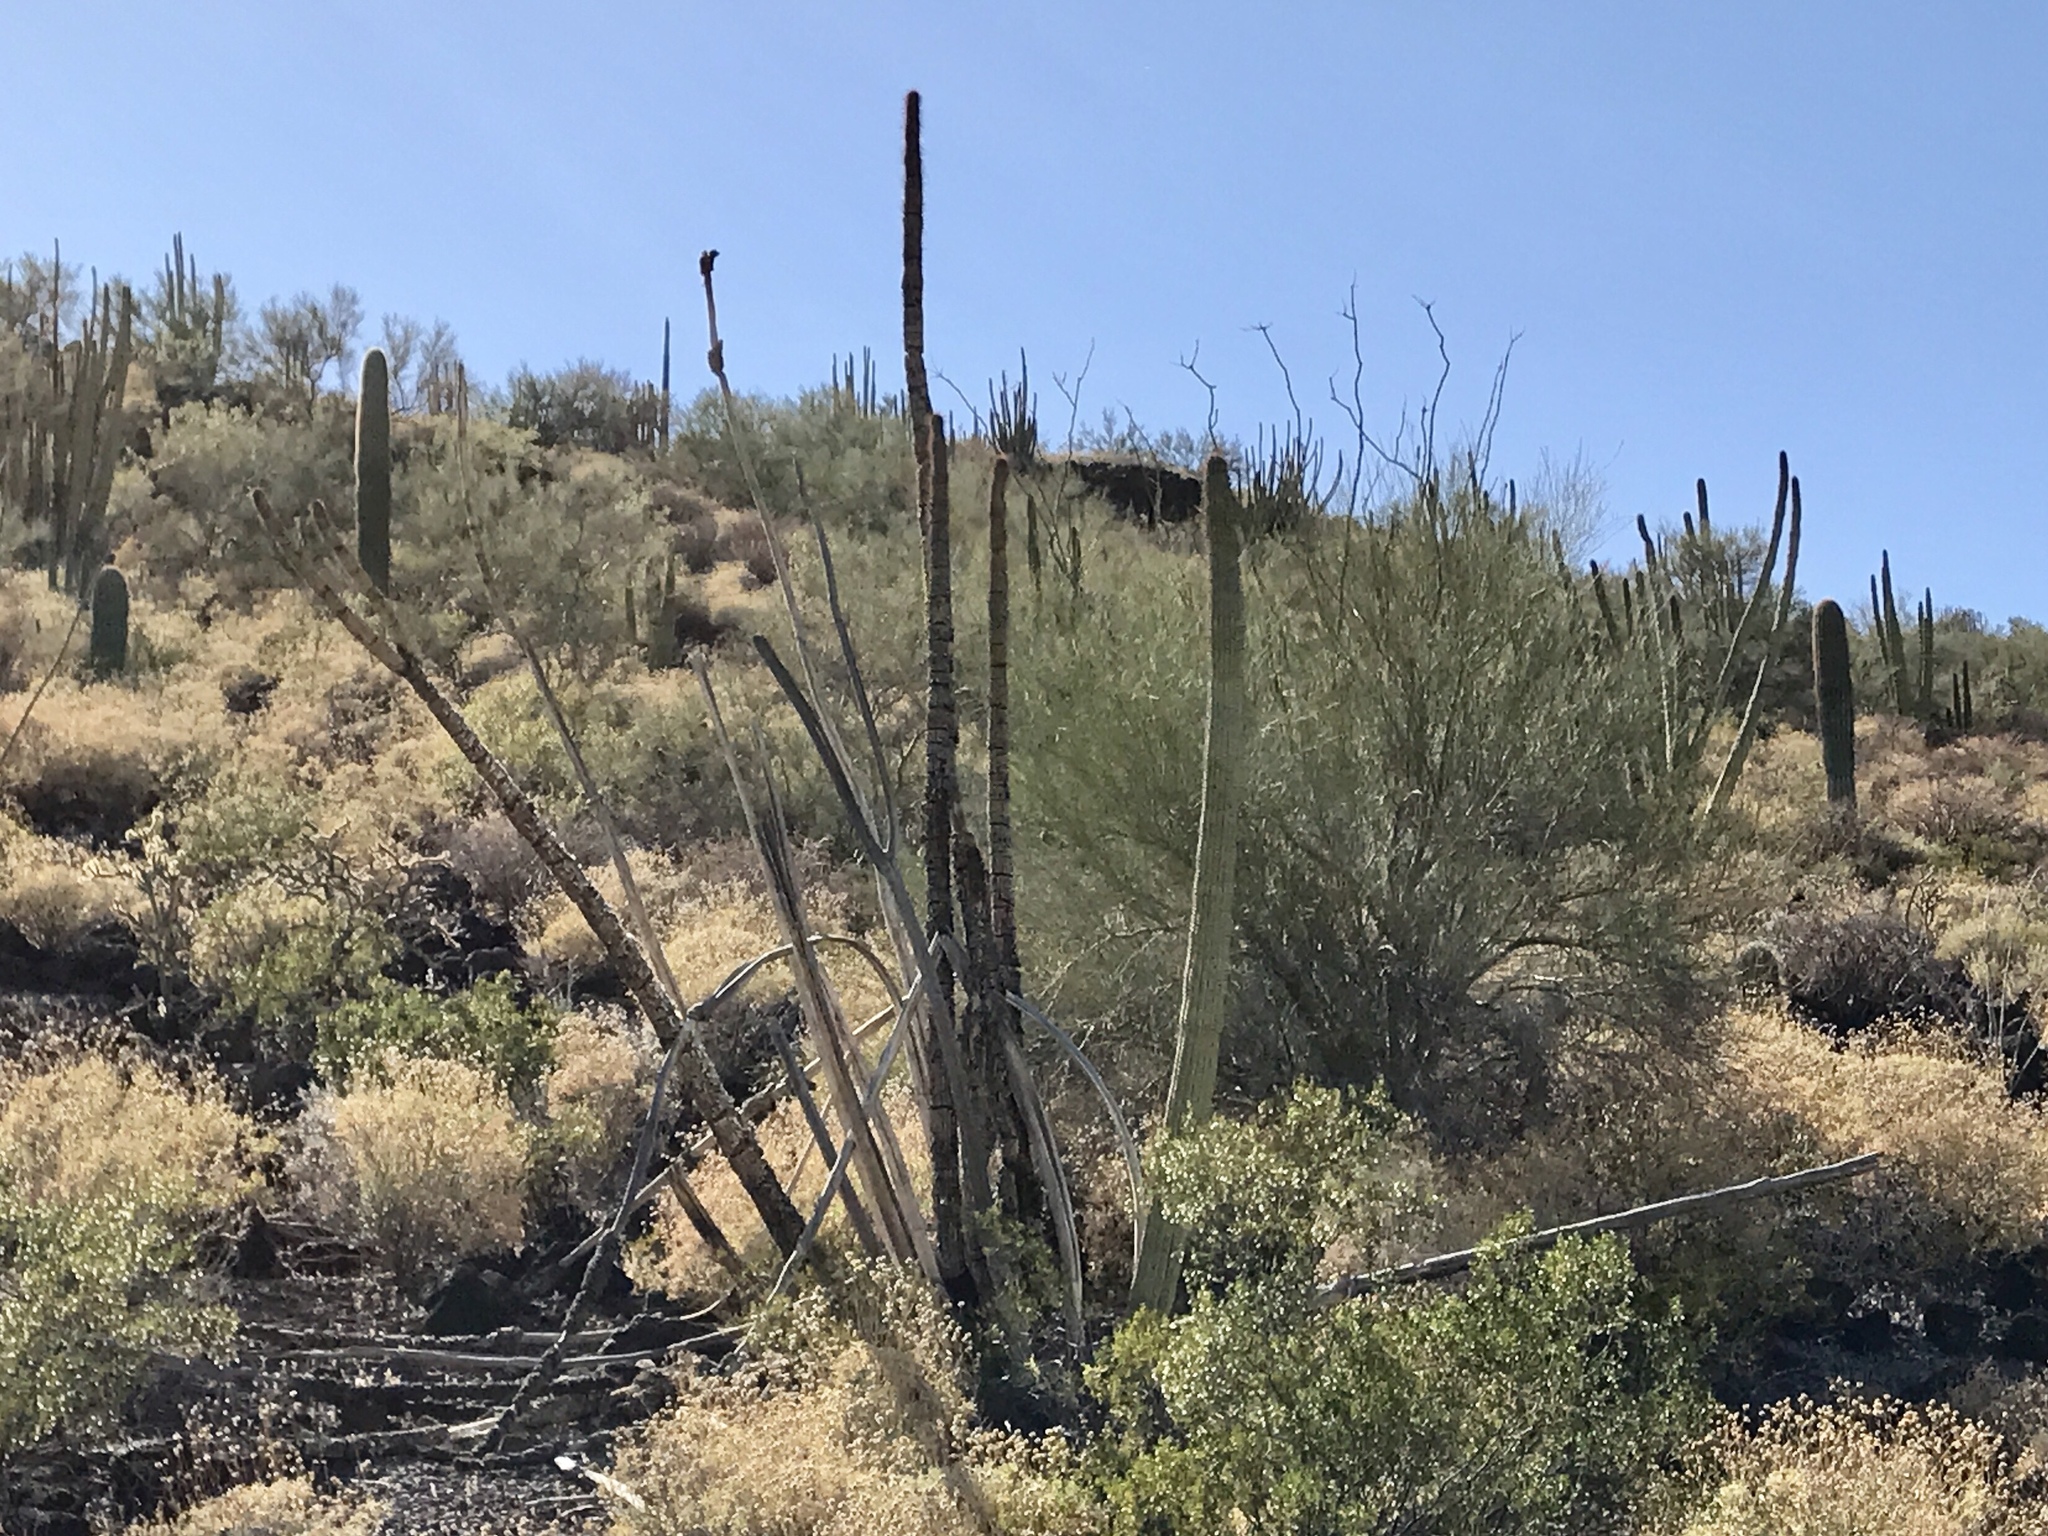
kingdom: Plantae
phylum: Tracheophyta
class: Magnoliopsida
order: Caryophyllales
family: Cactaceae
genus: Stenocereus
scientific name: Stenocereus thurberi
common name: Organ pipe cactus
